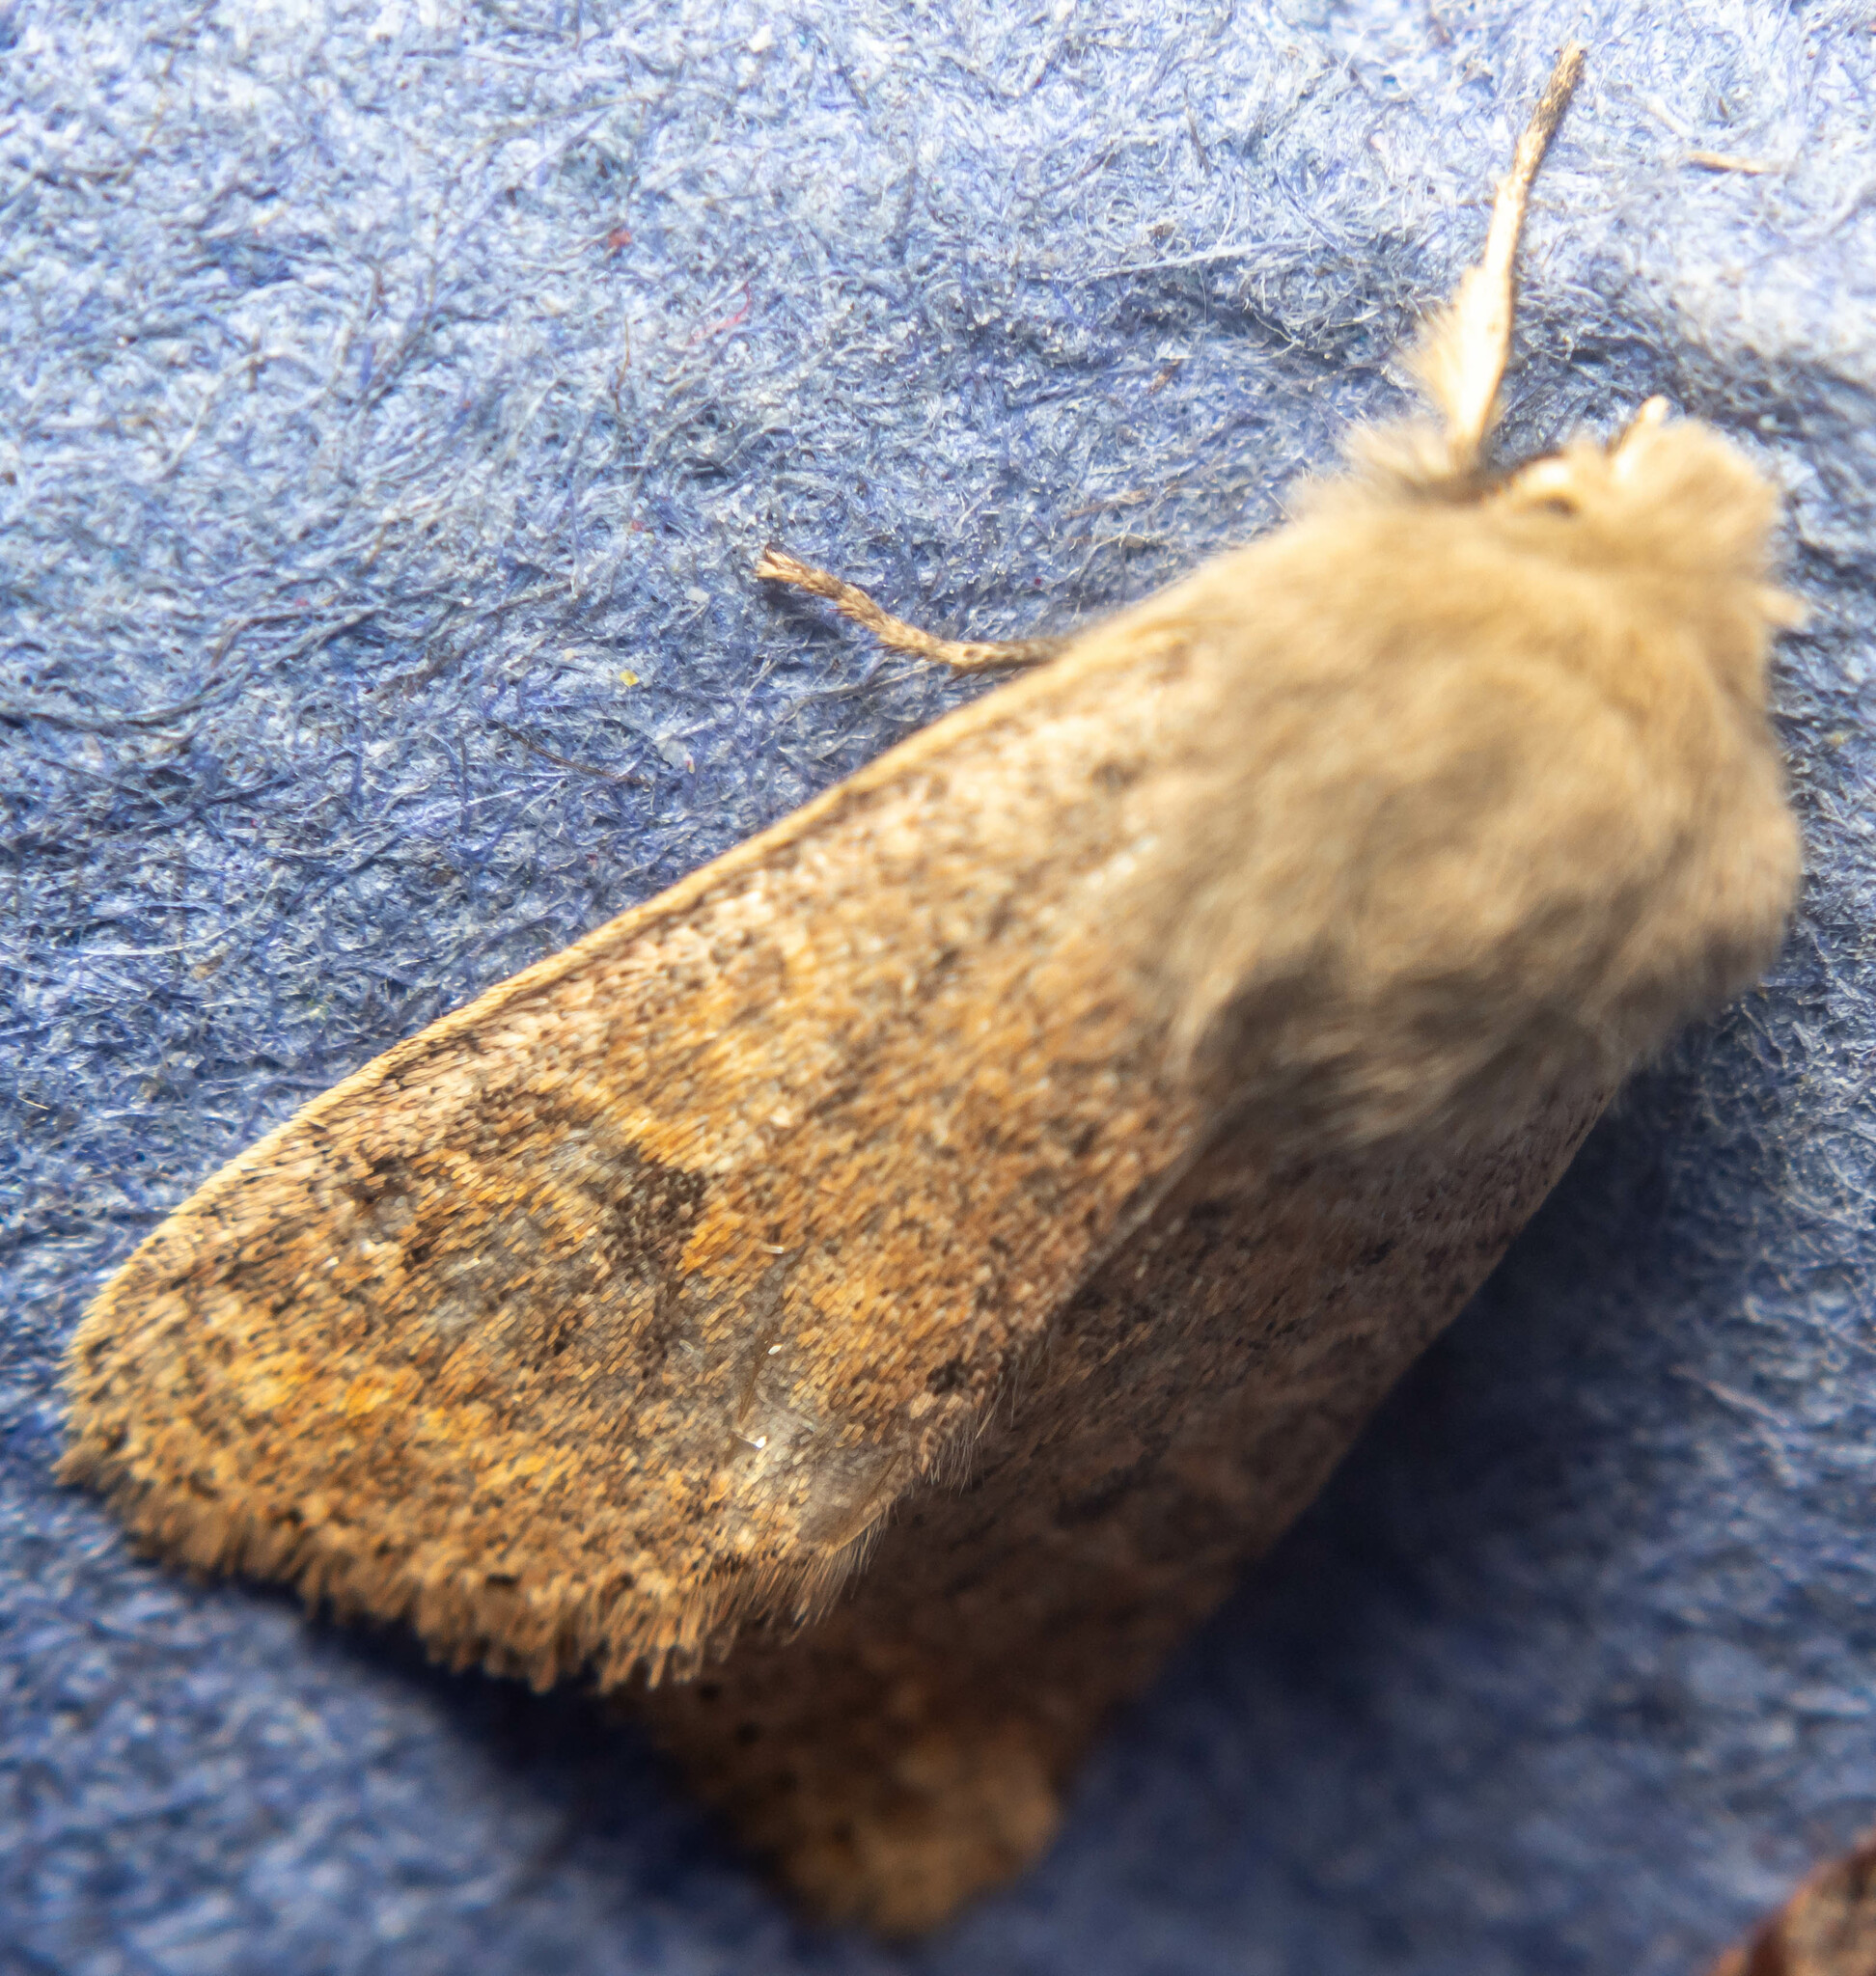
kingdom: Animalia
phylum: Arthropoda
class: Insecta
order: Lepidoptera
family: Noctuidae
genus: Orthosia
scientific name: Orthosia cruda
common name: Small quaker
